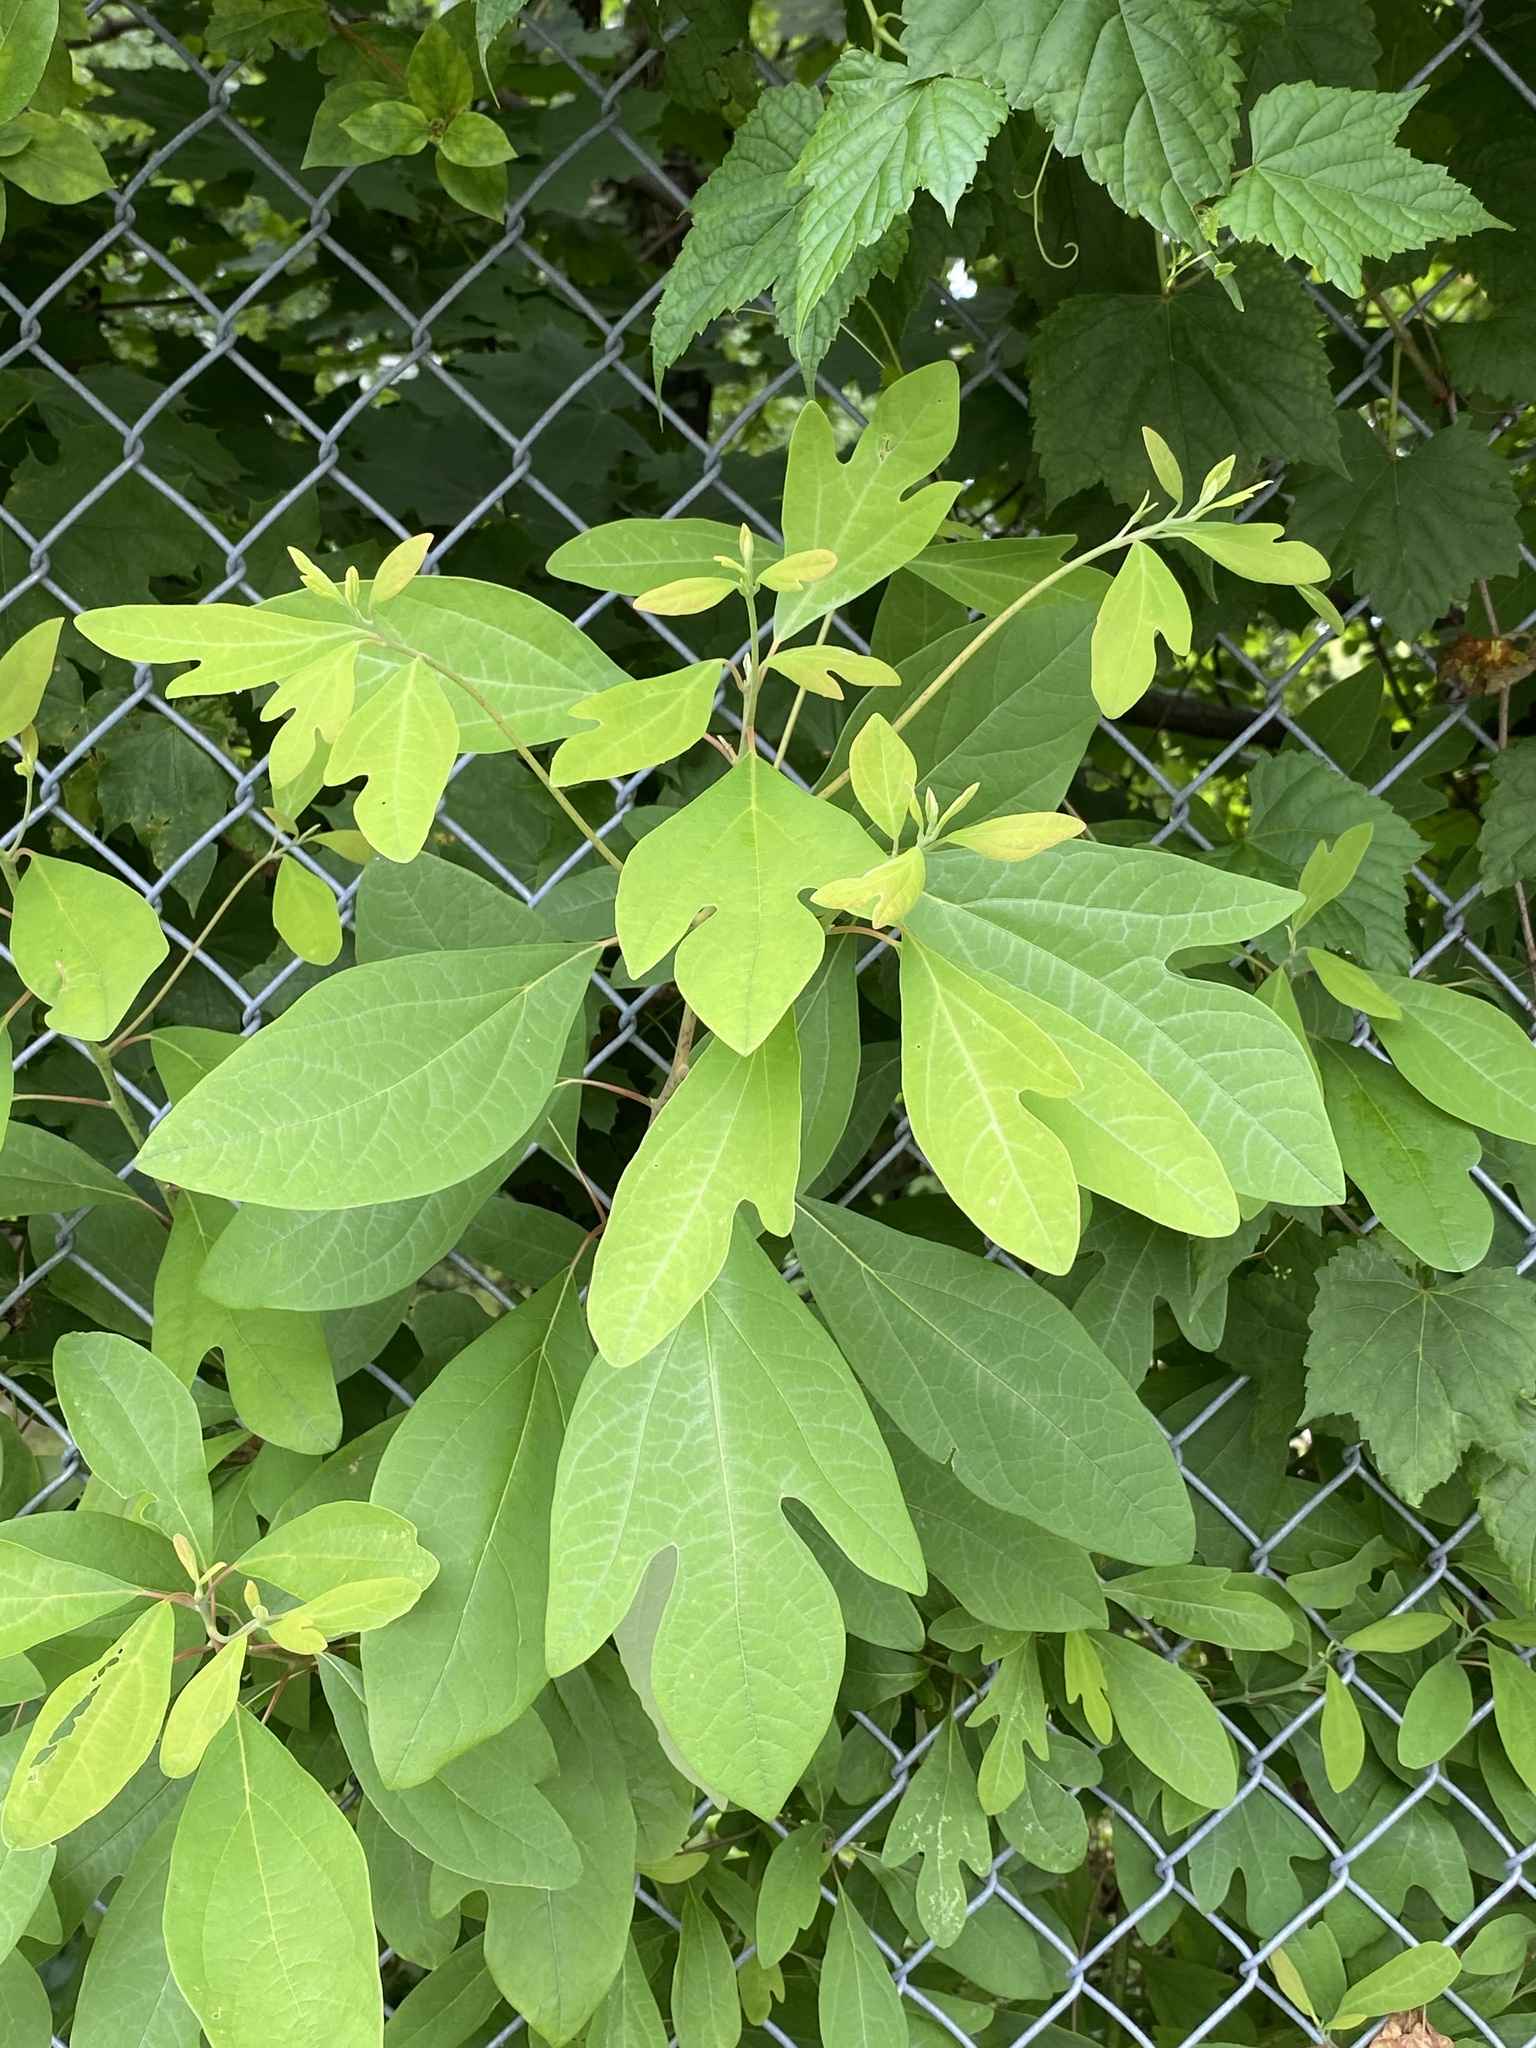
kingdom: Plantae
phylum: Tracheophyta
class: Magnoliopsida
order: Laurales
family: Lauraceae
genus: Sassafras
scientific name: Sassafras albidum
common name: Sassafras
